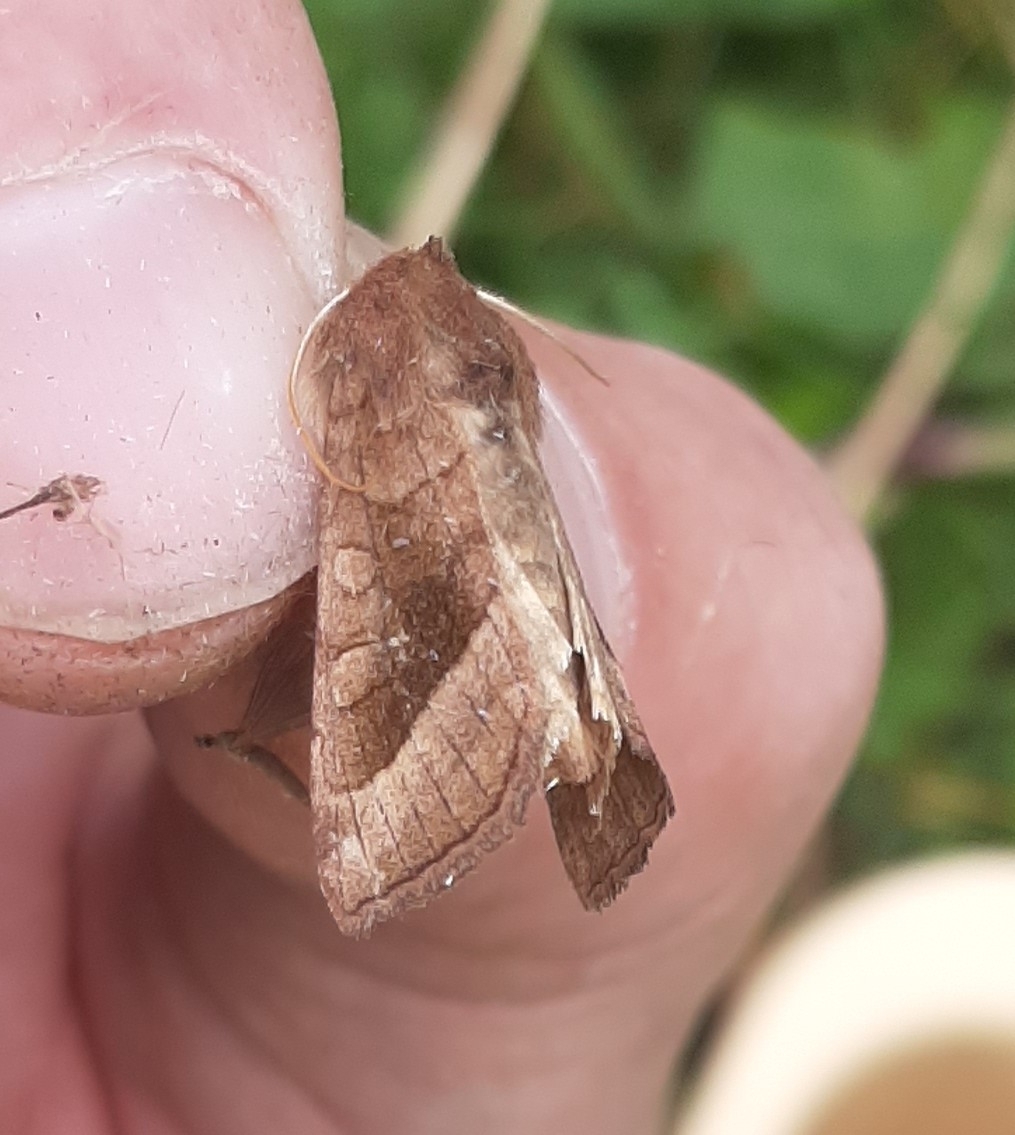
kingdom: Animalia
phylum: Arthropoda
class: Insecta
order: Lepidoptera
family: Noctuidae
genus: Hydraecia
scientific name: Hydraecia micacea
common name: Rosy rustic
